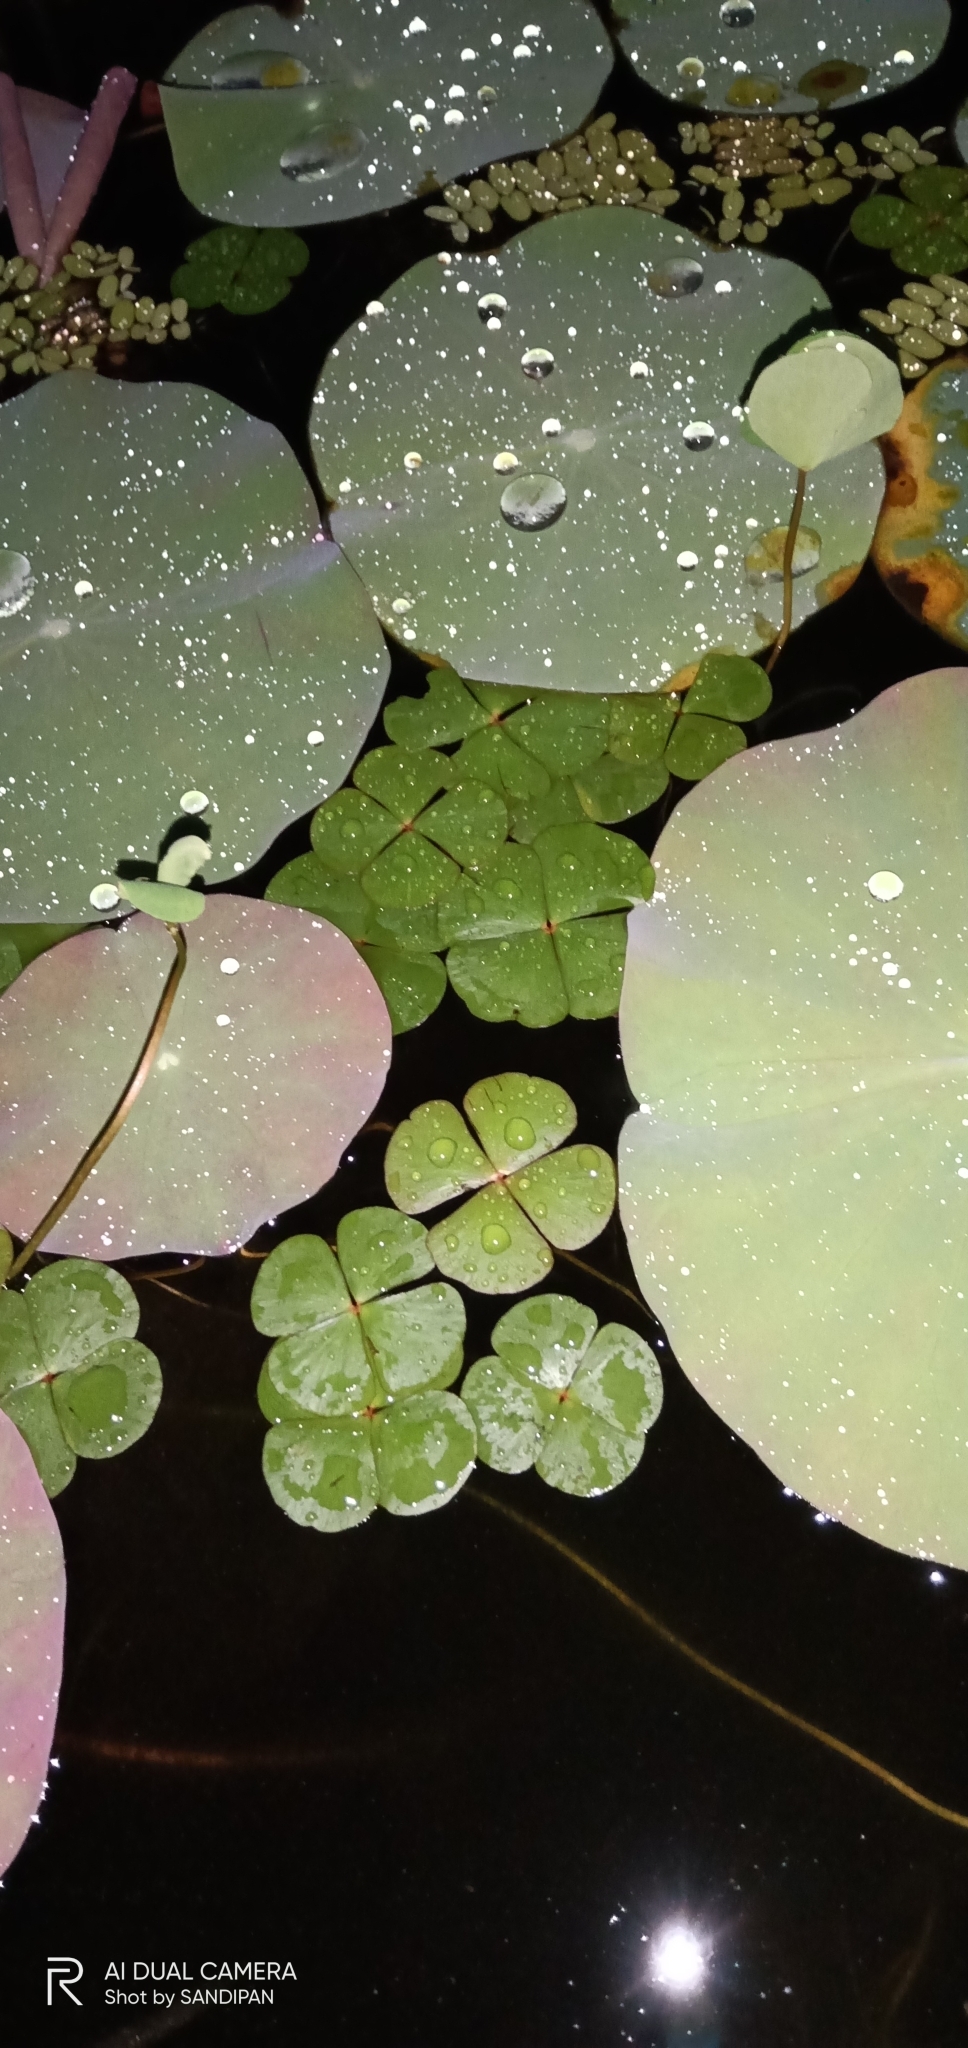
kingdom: Plantae
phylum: Tracheophyta
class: Polypodiopsida
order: Salviniales
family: Marsileaceae
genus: Marsilea
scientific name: Marsilea quadrifolia
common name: Water shamrock
